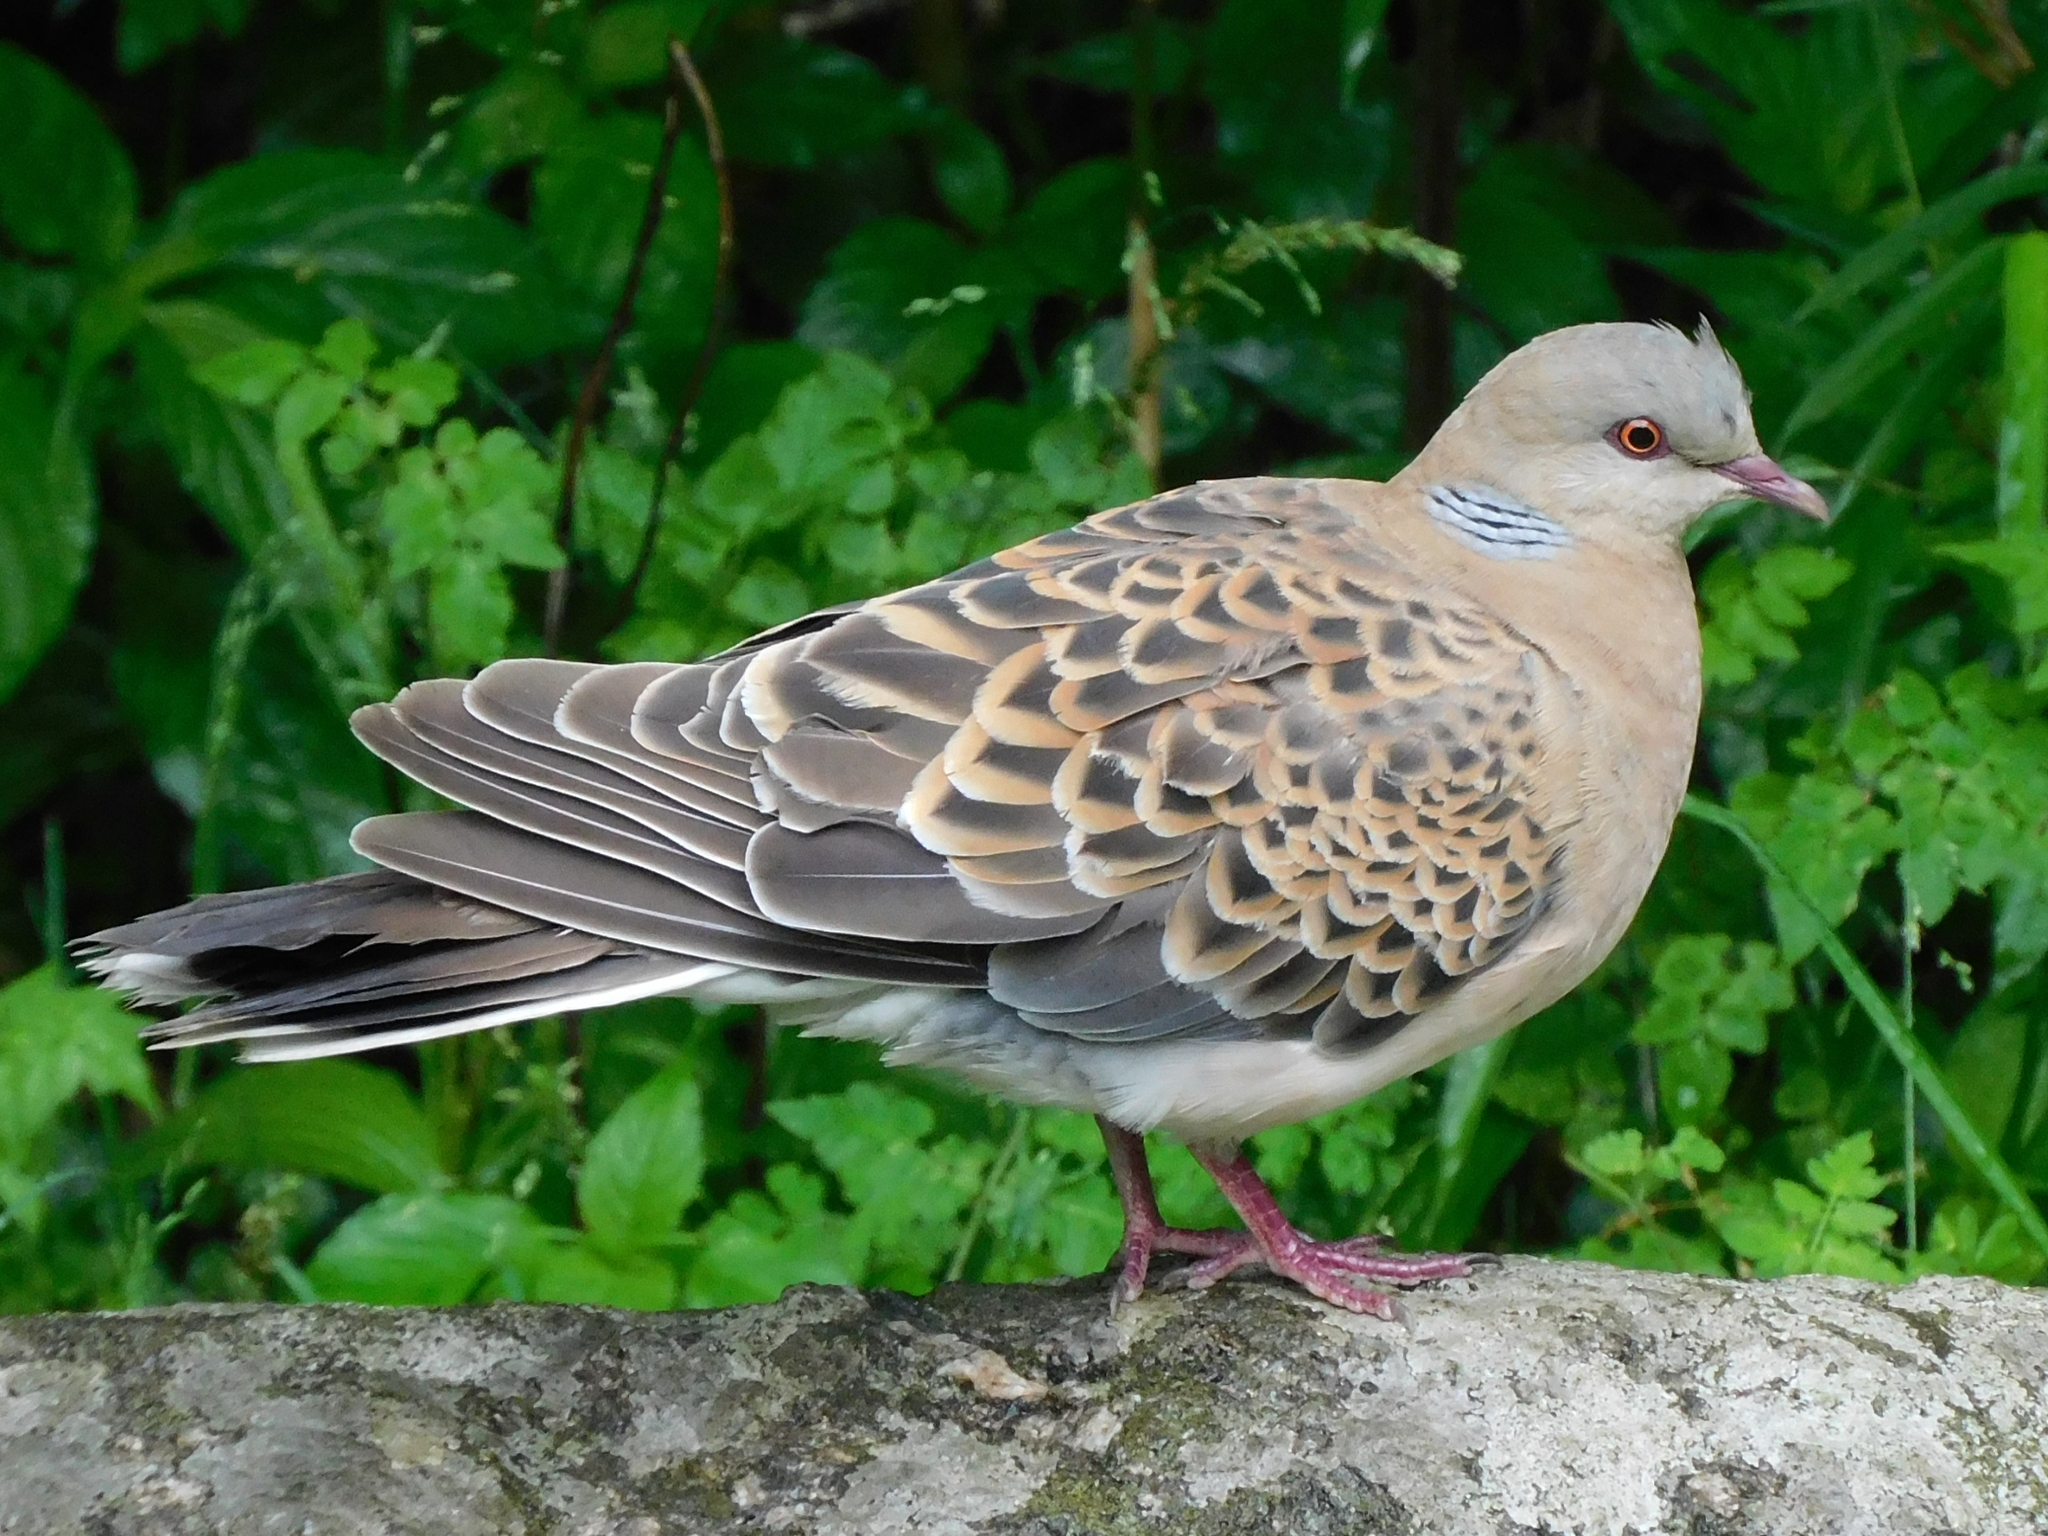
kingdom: Animalia
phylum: Chordata
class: Aves
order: Columbiformes
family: Columbidae
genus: Streptopelia
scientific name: Streptopelia orientalis
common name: Oriental turtle dove
